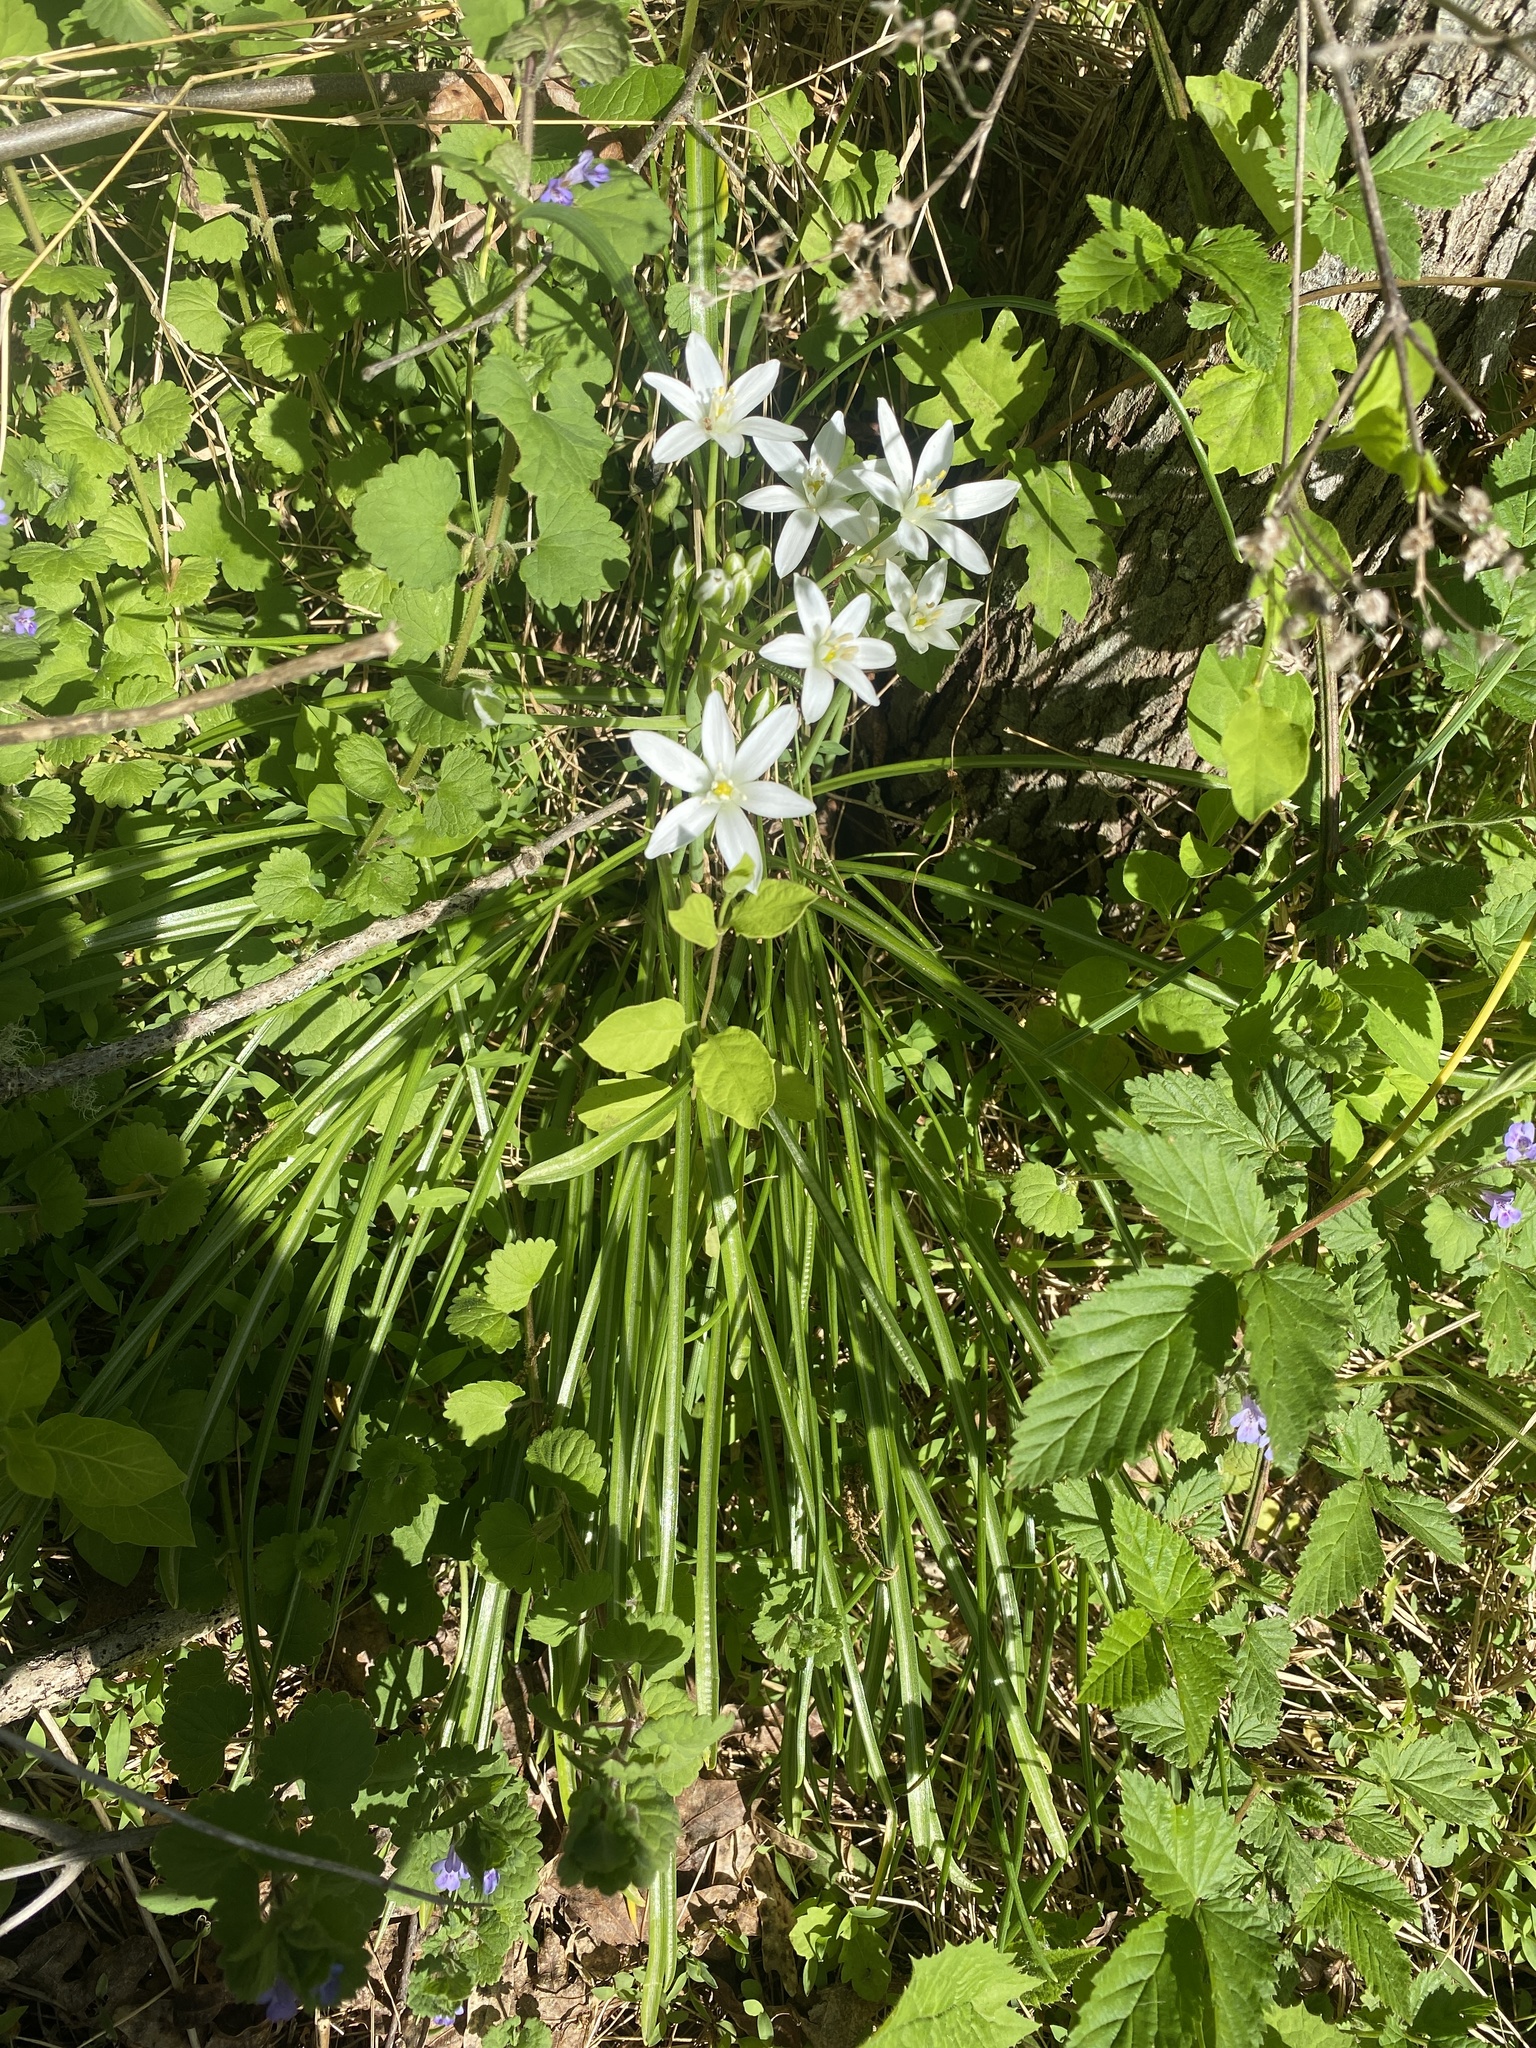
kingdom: Plantae
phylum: Tracheophyta
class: Liliopsida
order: Asparagales
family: Asparagaceae
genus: Ornithogalum
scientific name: Ornithogalum umbellatum
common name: Garden star-of-bethlehem
